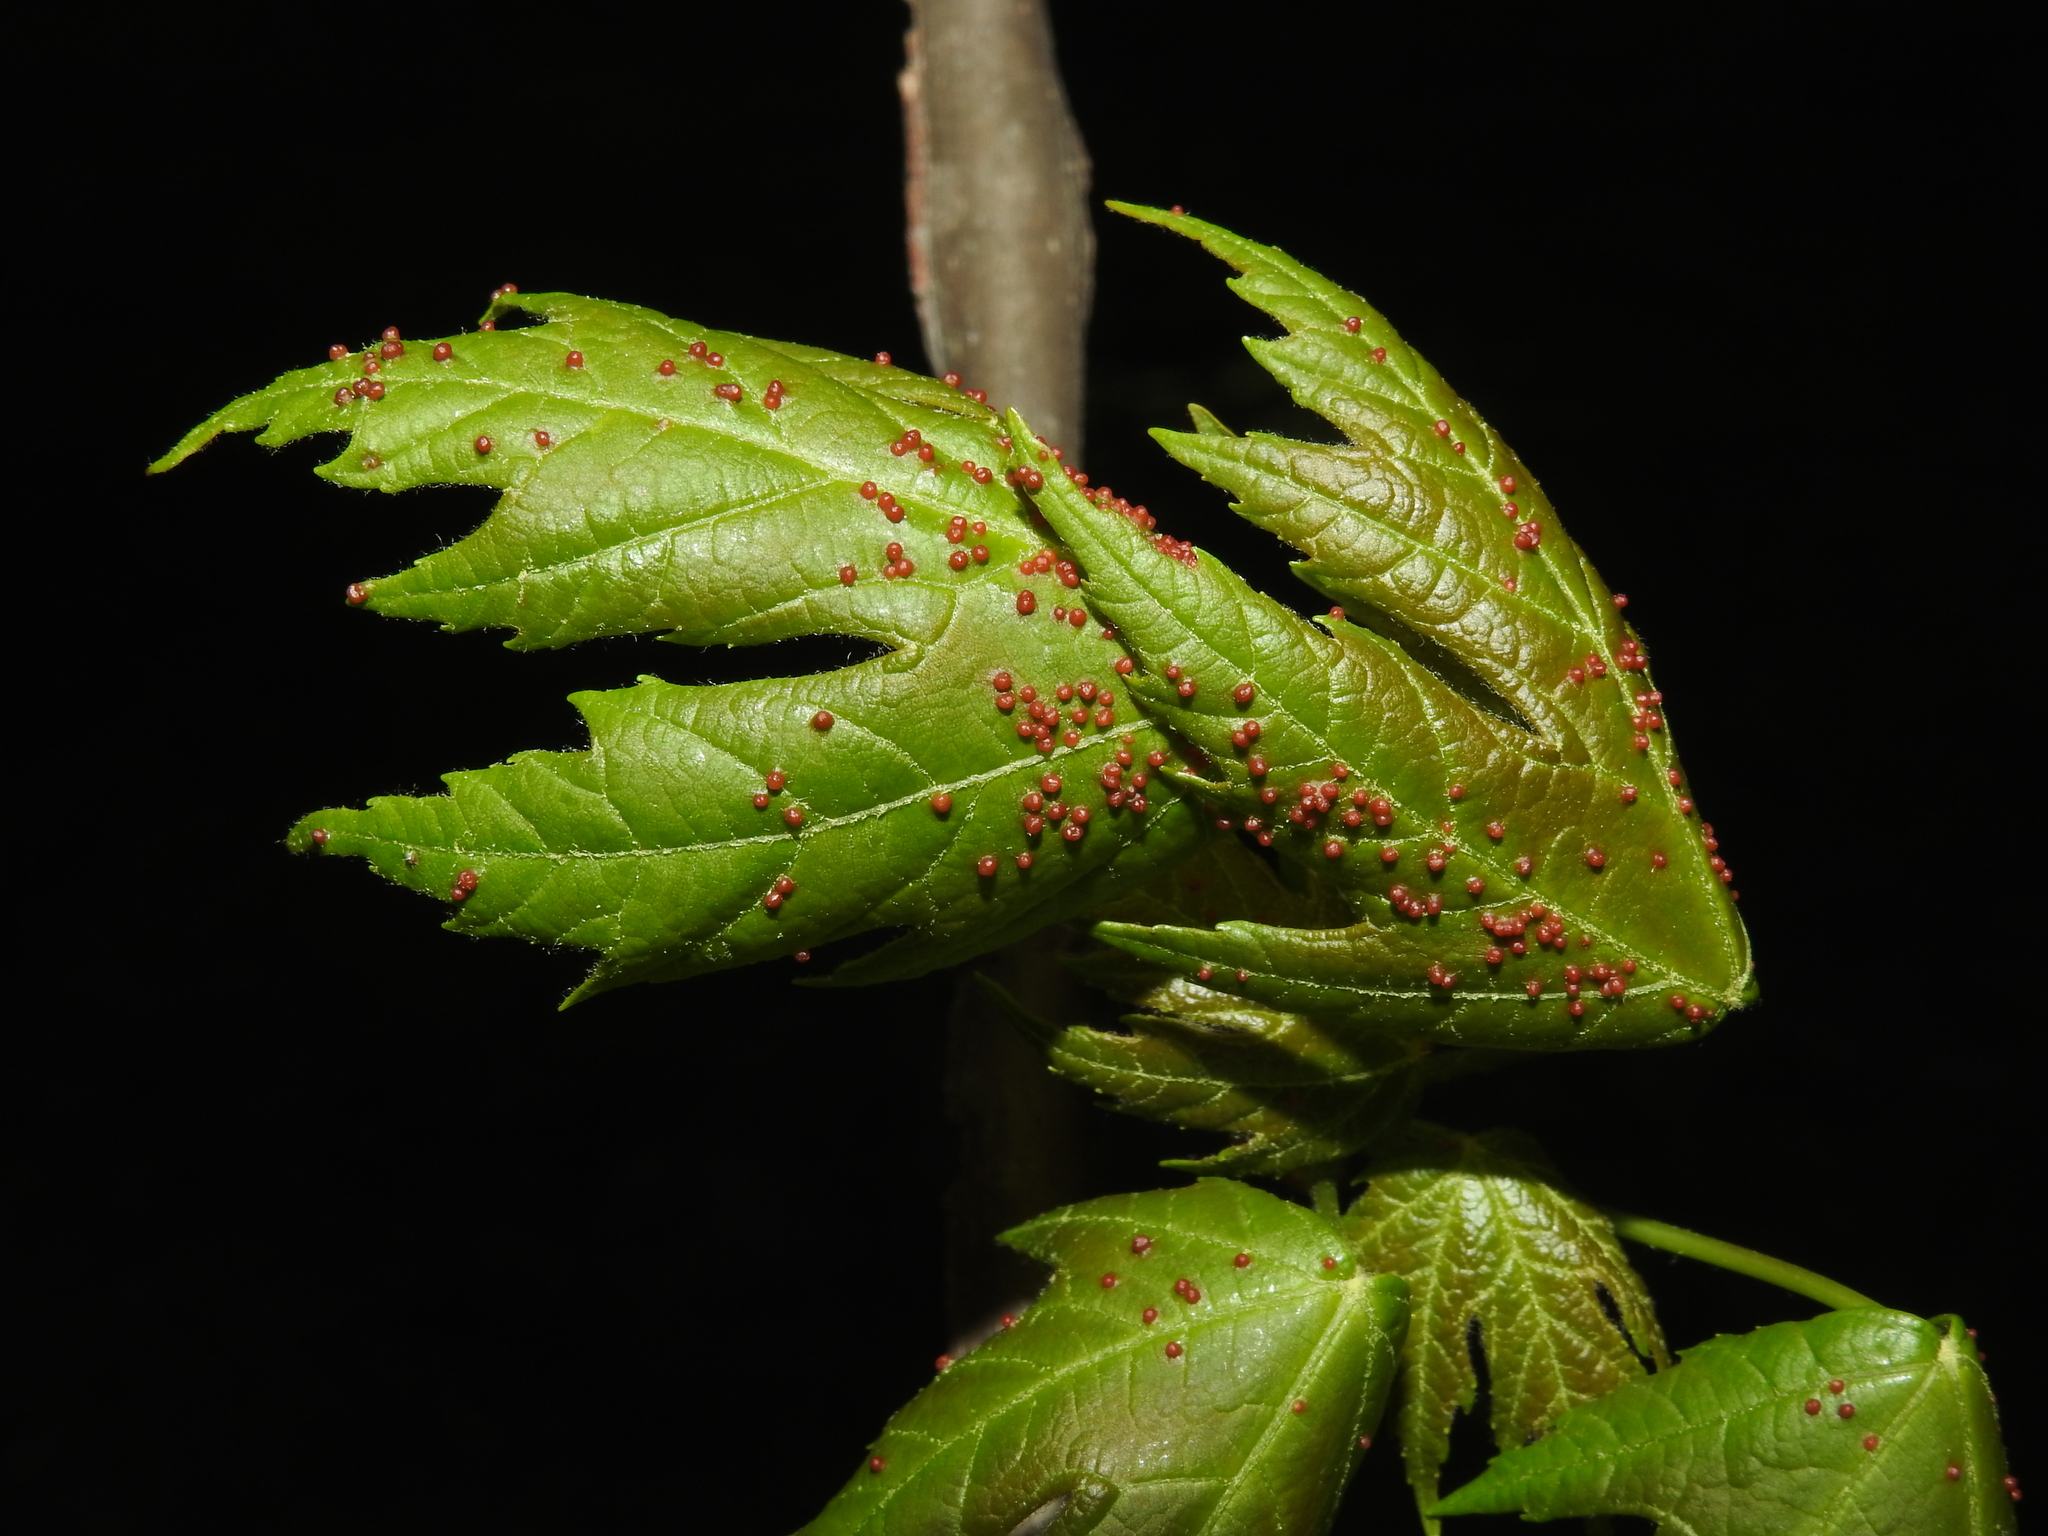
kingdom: Animalia
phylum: Arthropoda
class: Arachnida
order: Trombidiformes
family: Eriophyidae
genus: Vasates
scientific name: Vasates quadripedes
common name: Maple bladder gall mite
